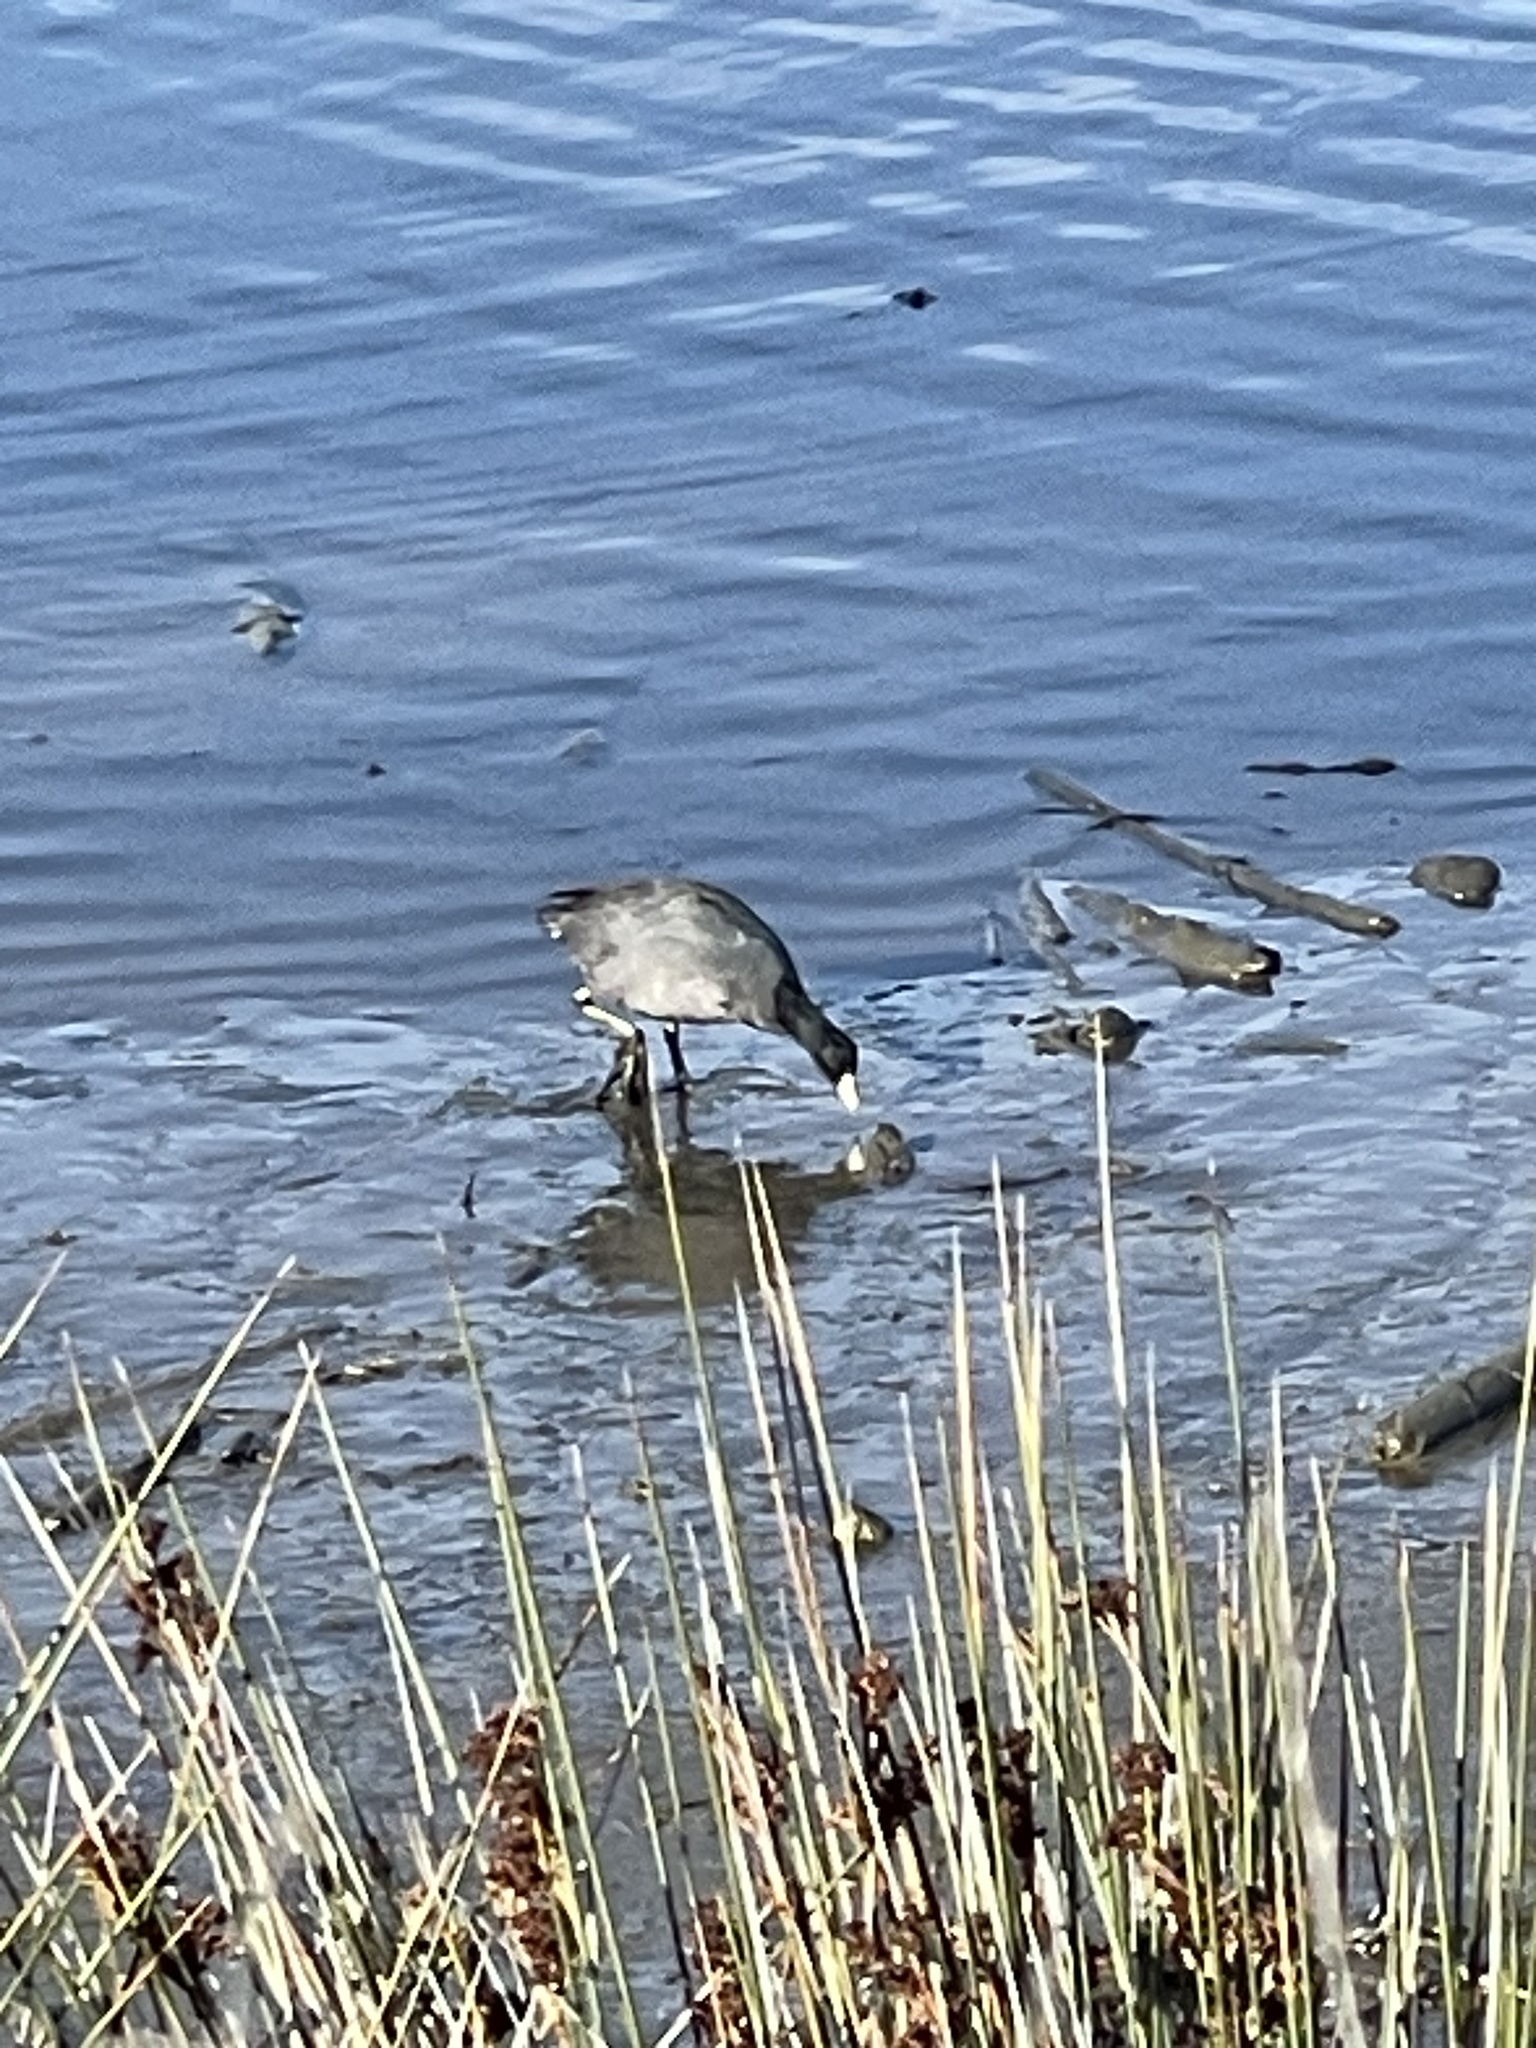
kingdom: Animalia
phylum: Chordata
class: Aves
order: Gruiformes
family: Rallidae
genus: Fulica
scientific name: Fulica americana
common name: American coot
